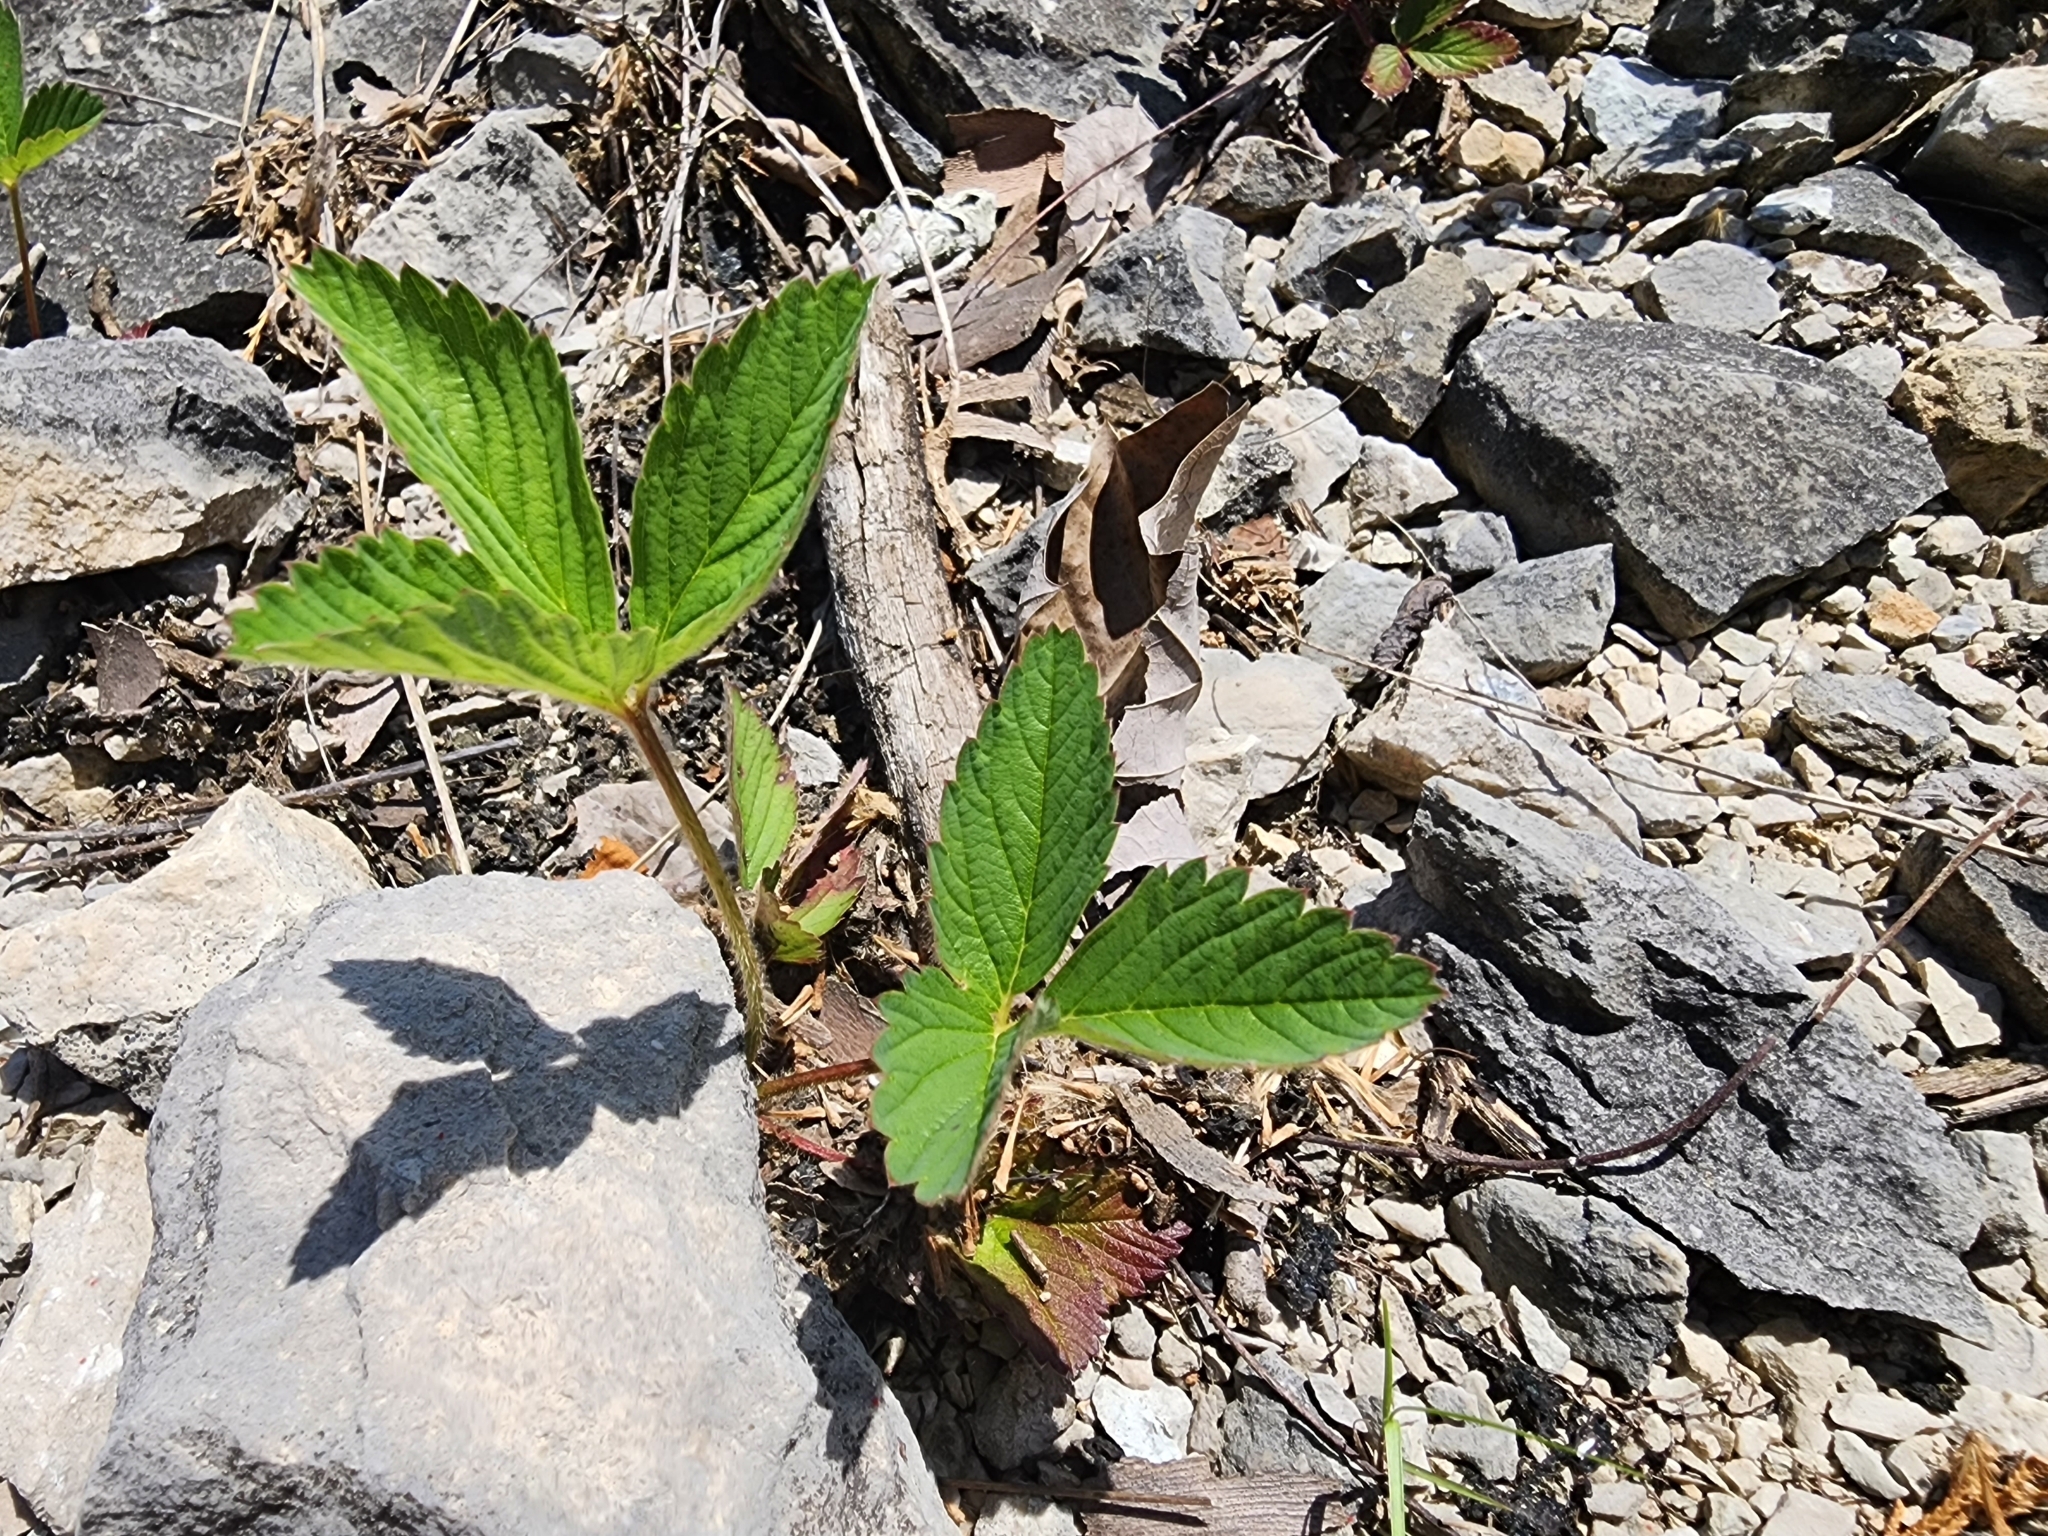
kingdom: Plantae
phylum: Tracheophyta
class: Magnoliopsida
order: Rosales
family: Rosaceae
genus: Fragaria
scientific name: Fragaria virginiana
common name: Thickleaved wild strawberry
